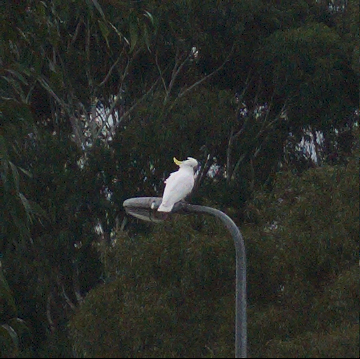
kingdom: Animalia
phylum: Chordata
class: Aves
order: Psittaciformes
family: Psittacidae
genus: Cacatua
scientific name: Cacatua galerita
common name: Sulphur-crested cockatoo
